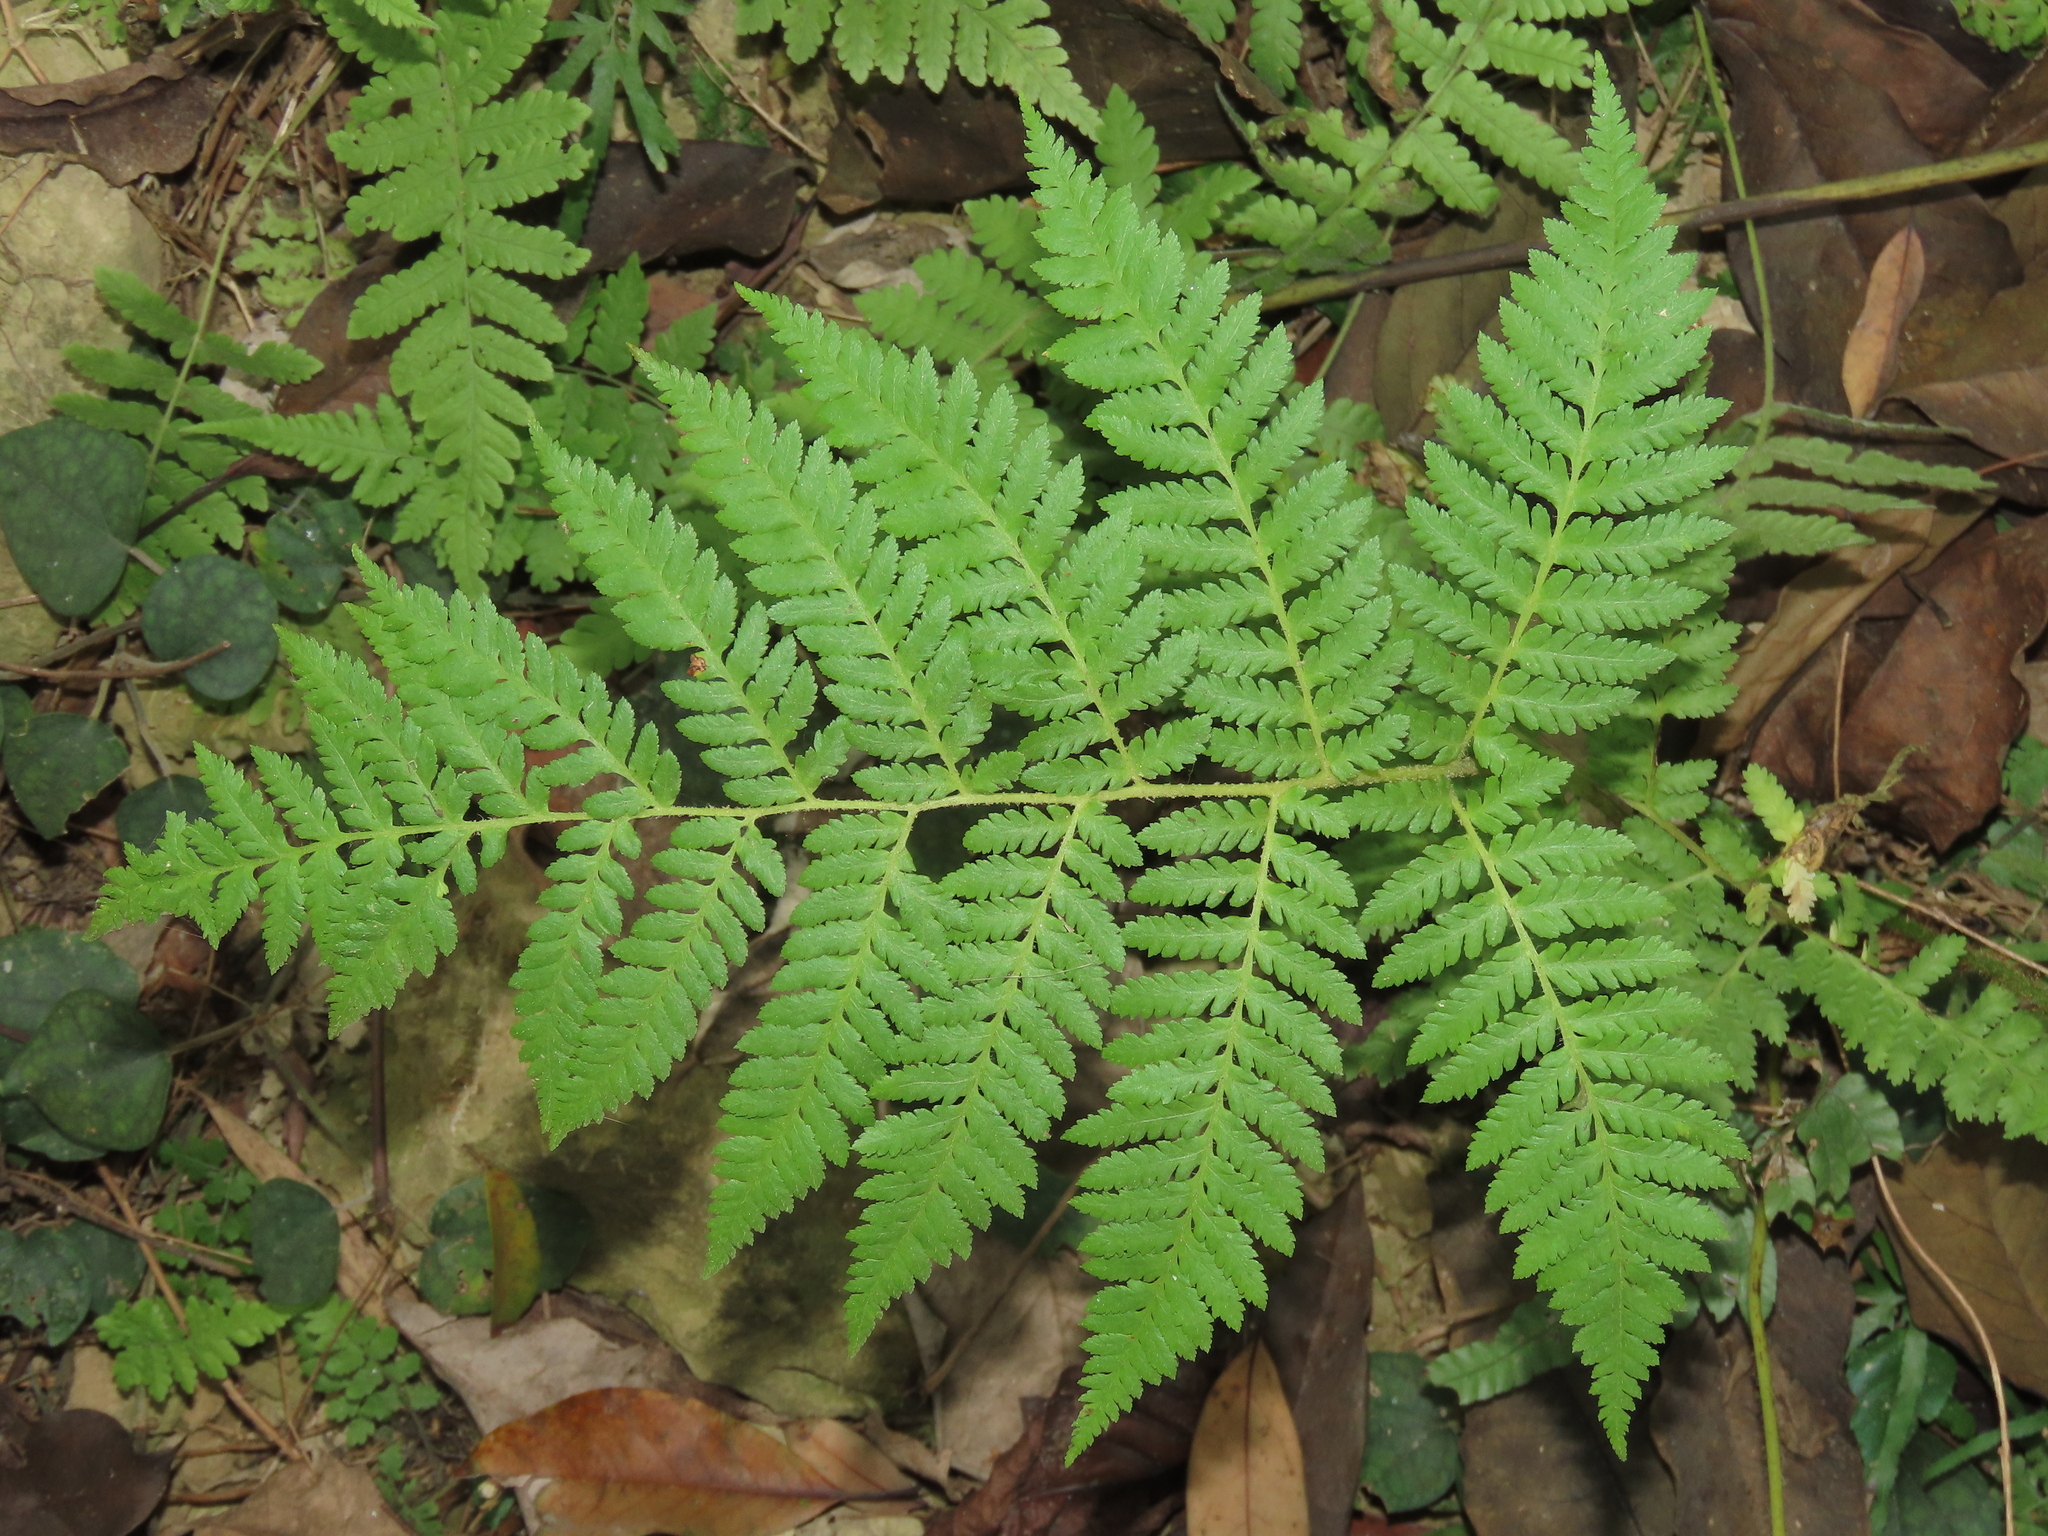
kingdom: Plantae
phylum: Tracheophyta
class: Polypodiopsida
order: Cyatheales
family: Cyatheaceae
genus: Alsophila
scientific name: Alsophila lepifera
